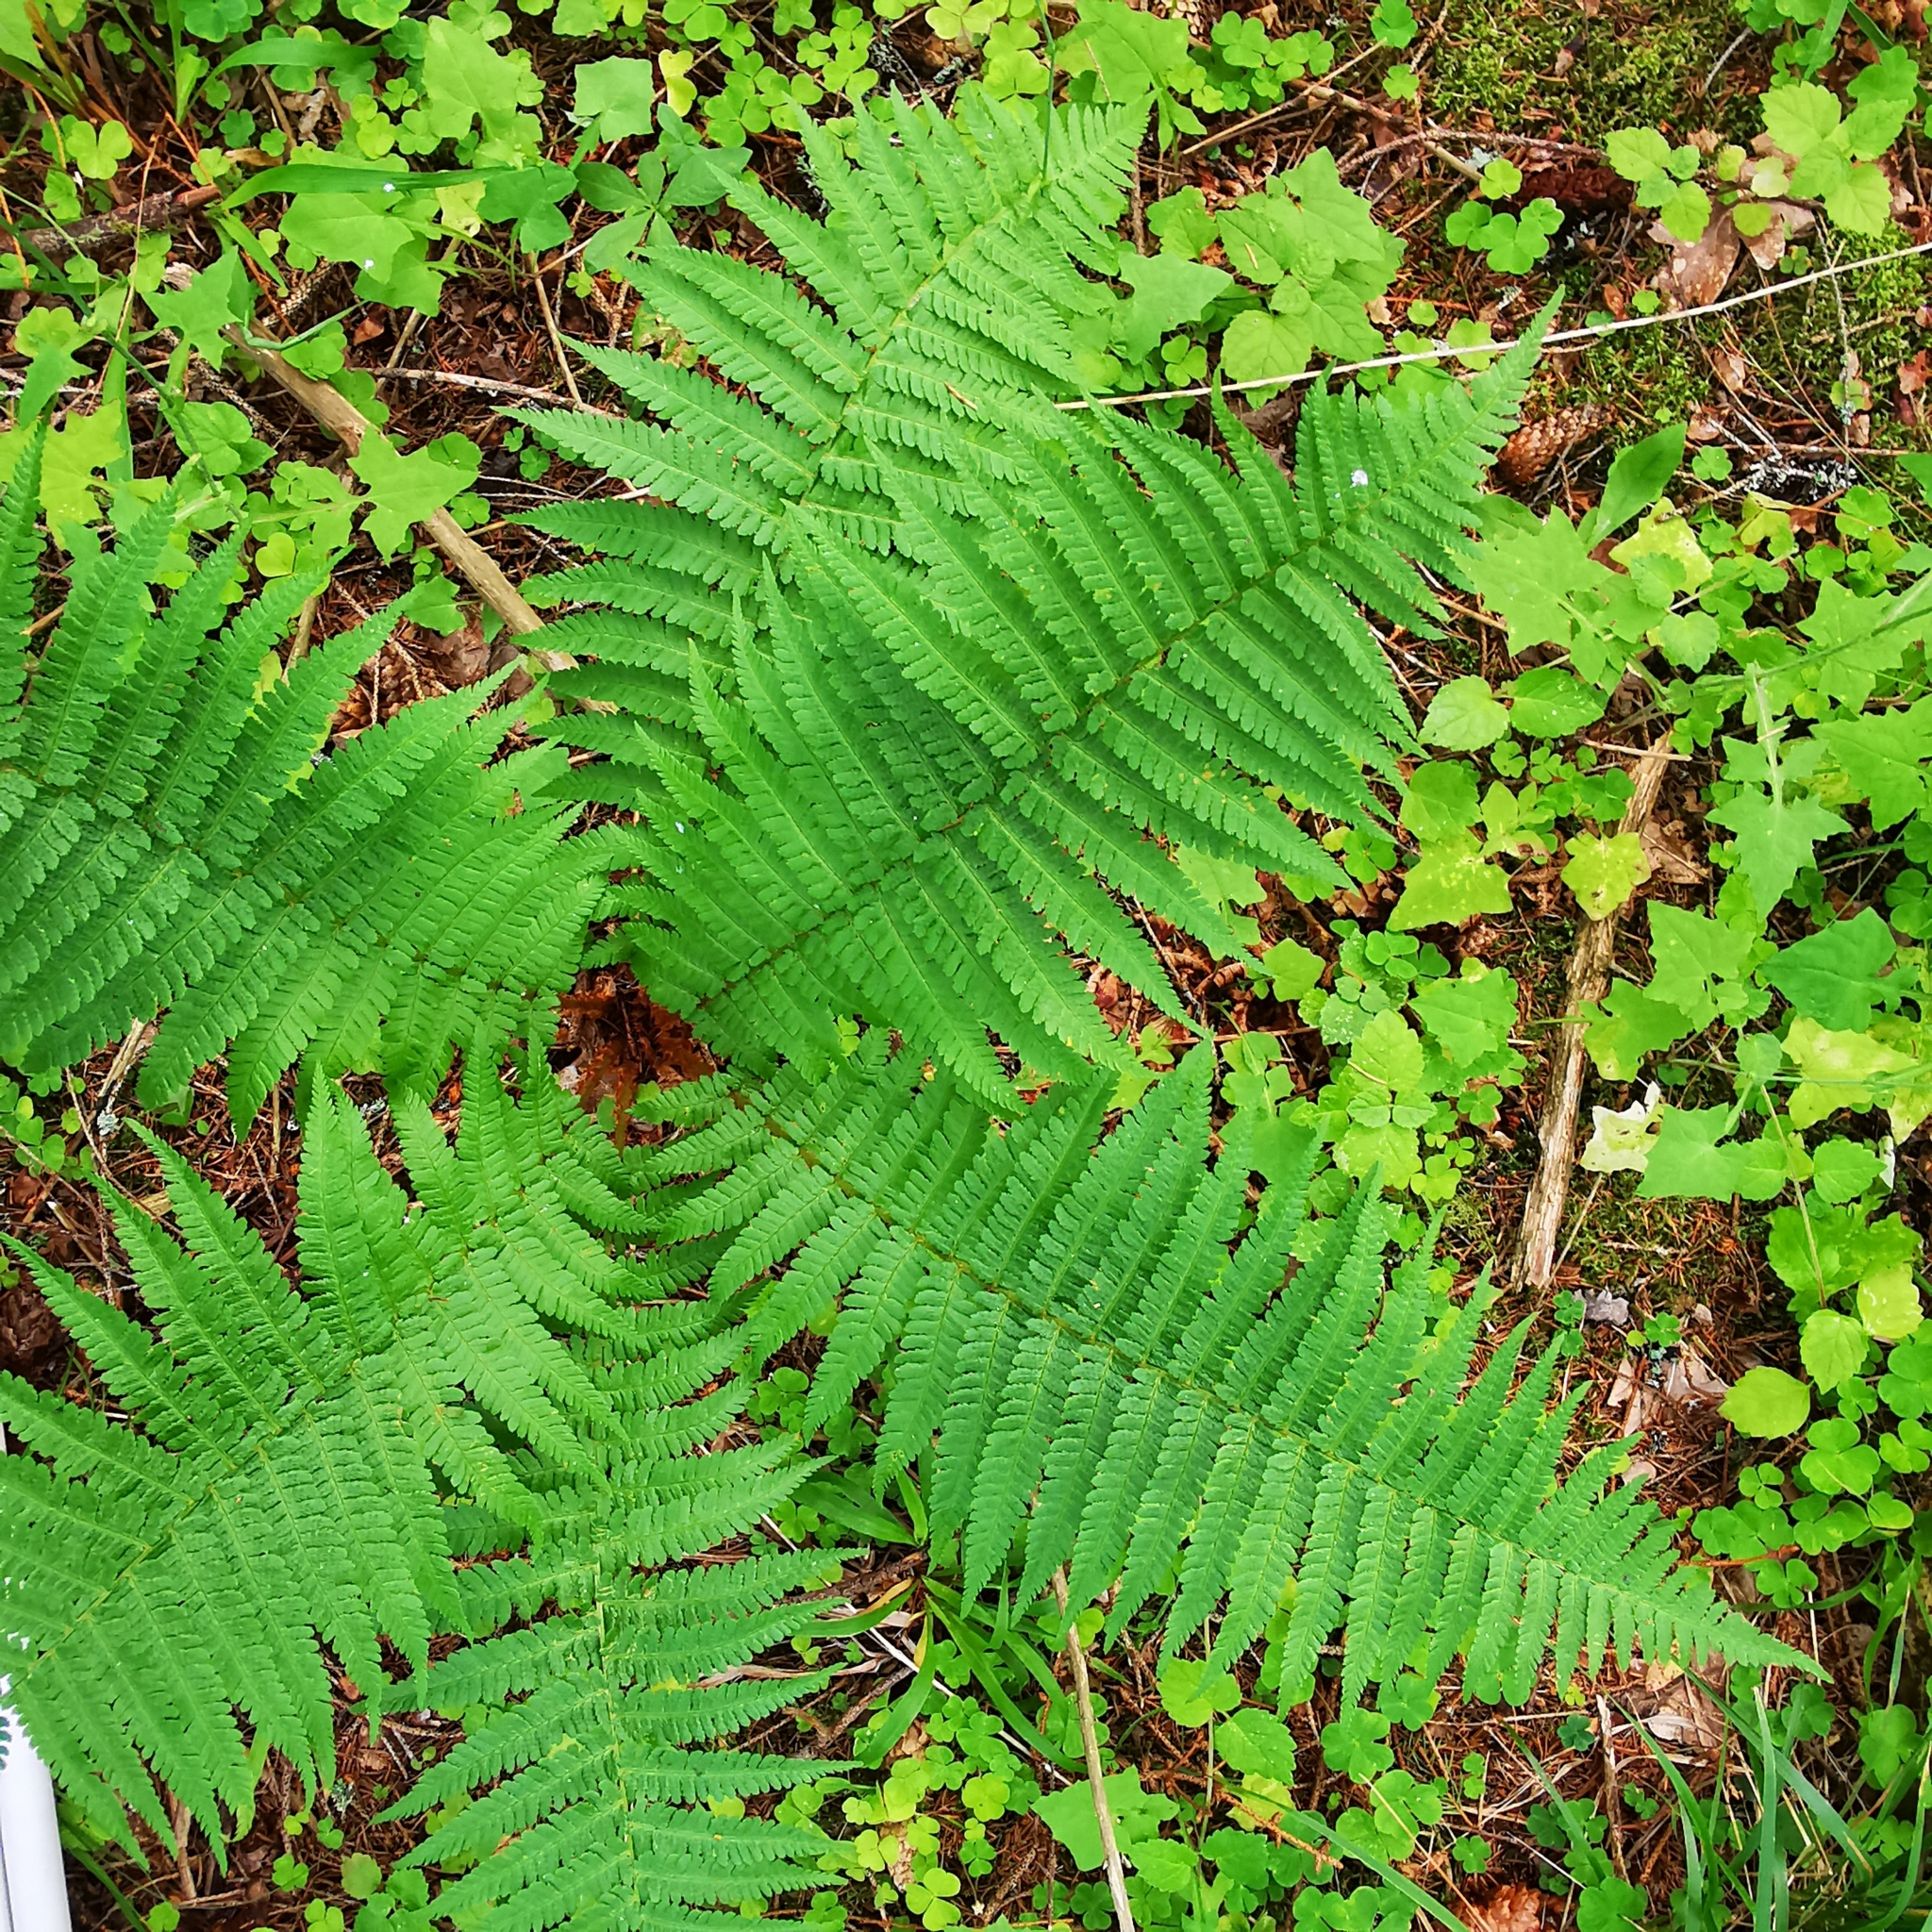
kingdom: Plantae
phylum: Tracheophyta
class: Polypodiopsida
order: Polypodiales
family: Dryopteridaceae
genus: Dryopteris
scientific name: Dryopteris filix-mas
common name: Male fern
